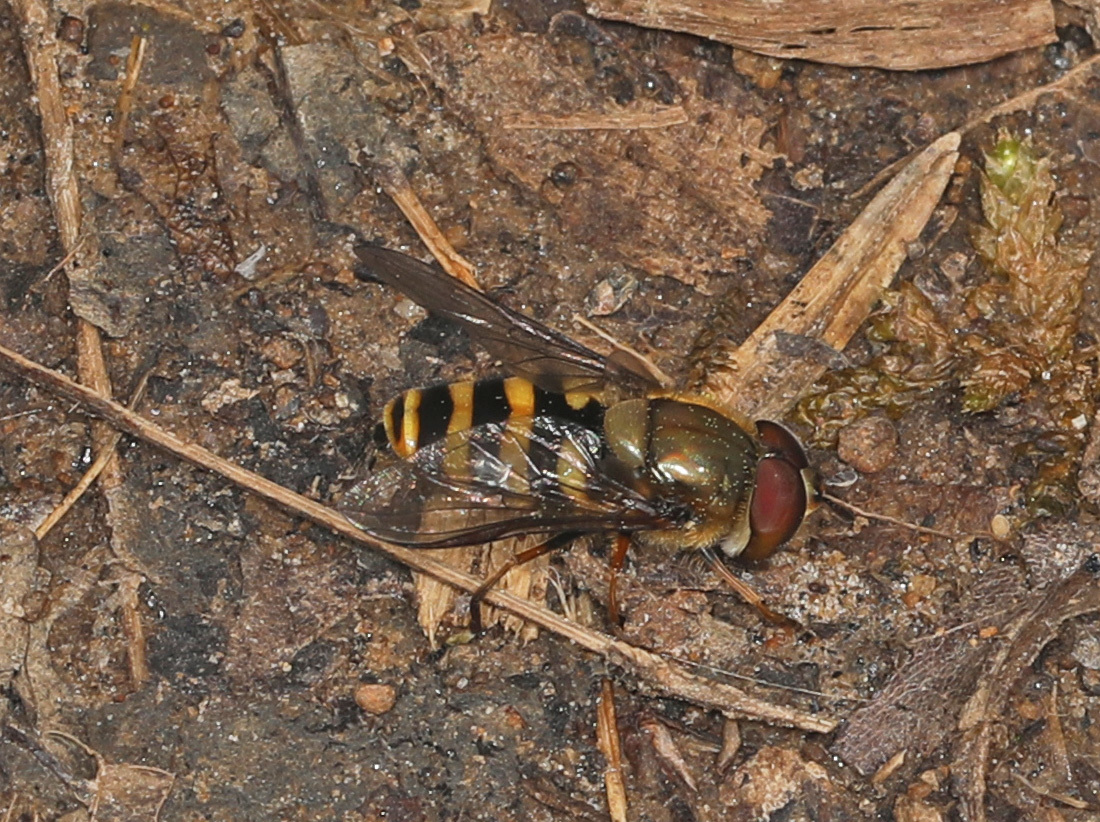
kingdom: Animalia
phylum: Arthropoda
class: Insecta
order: Diptera
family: Syrphidae
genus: Syrphus
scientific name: Syrphus torvus
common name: Hairy-eyed flower fly
